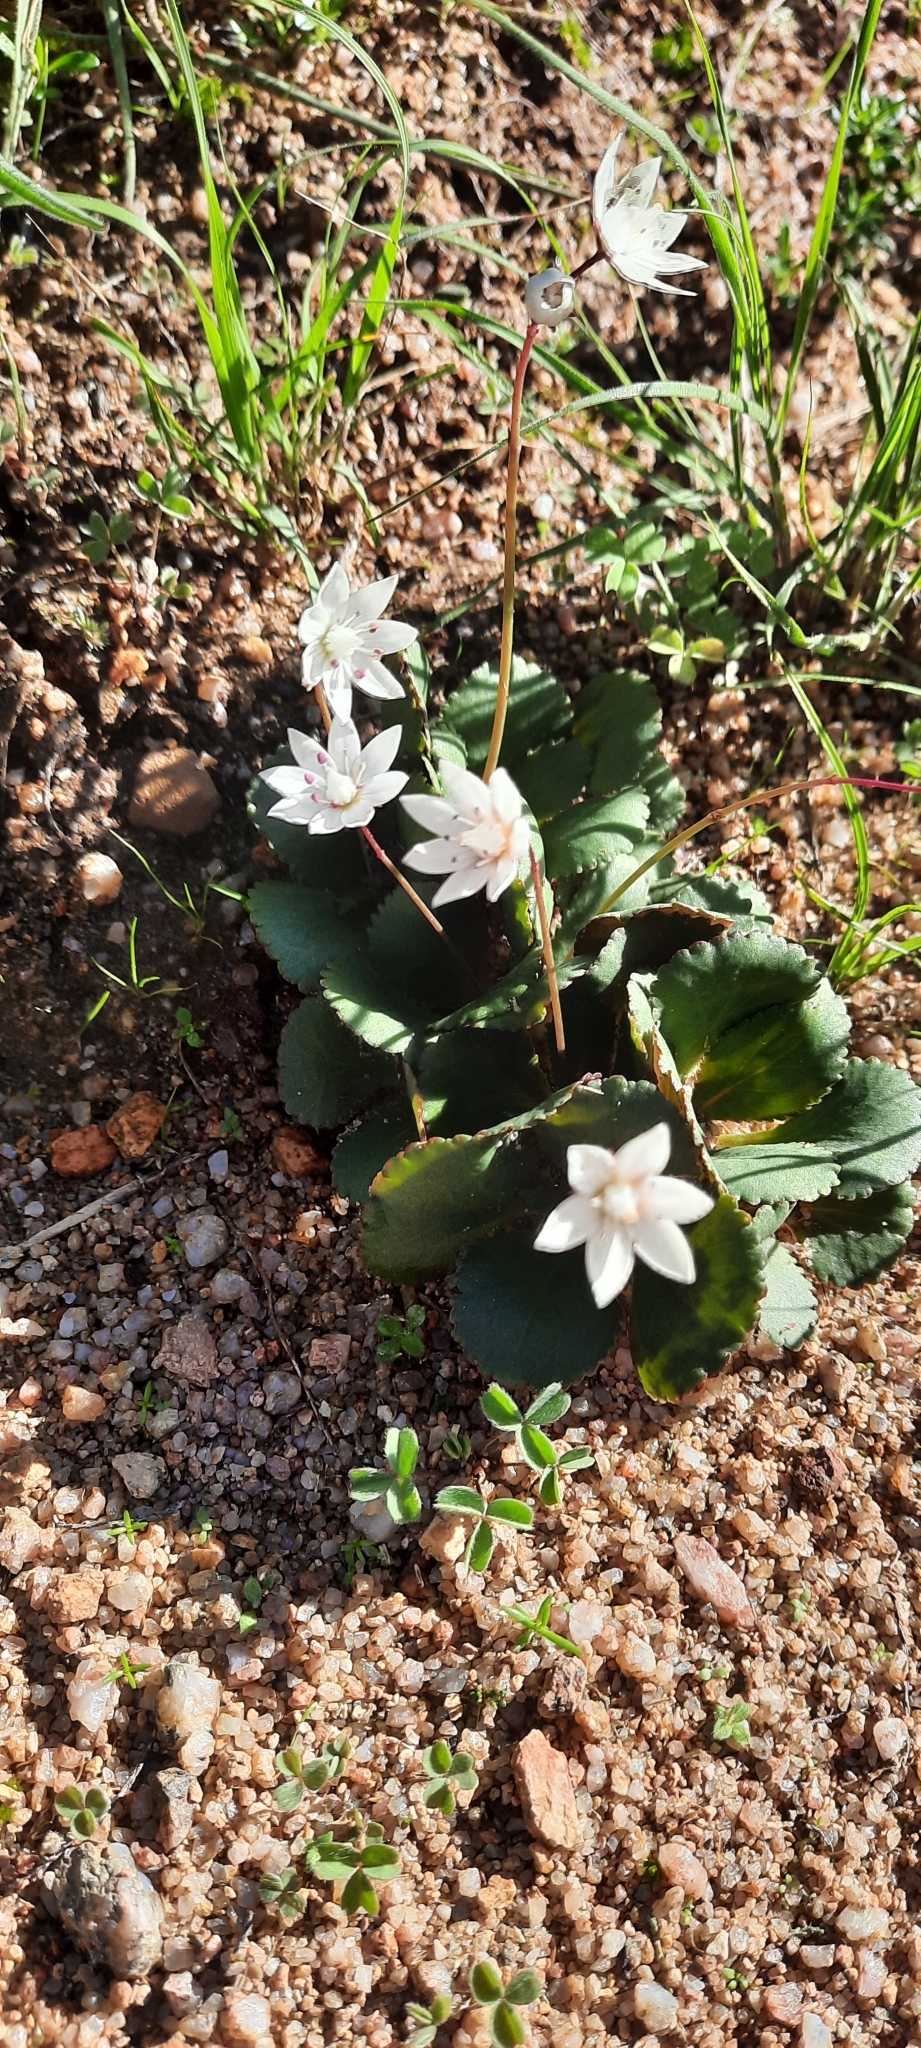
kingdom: Plantae
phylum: Tracheophyta
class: Magnoliopsida
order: Saxifragales
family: Crassulaceae
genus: Crassula
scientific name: Crassula capensis
